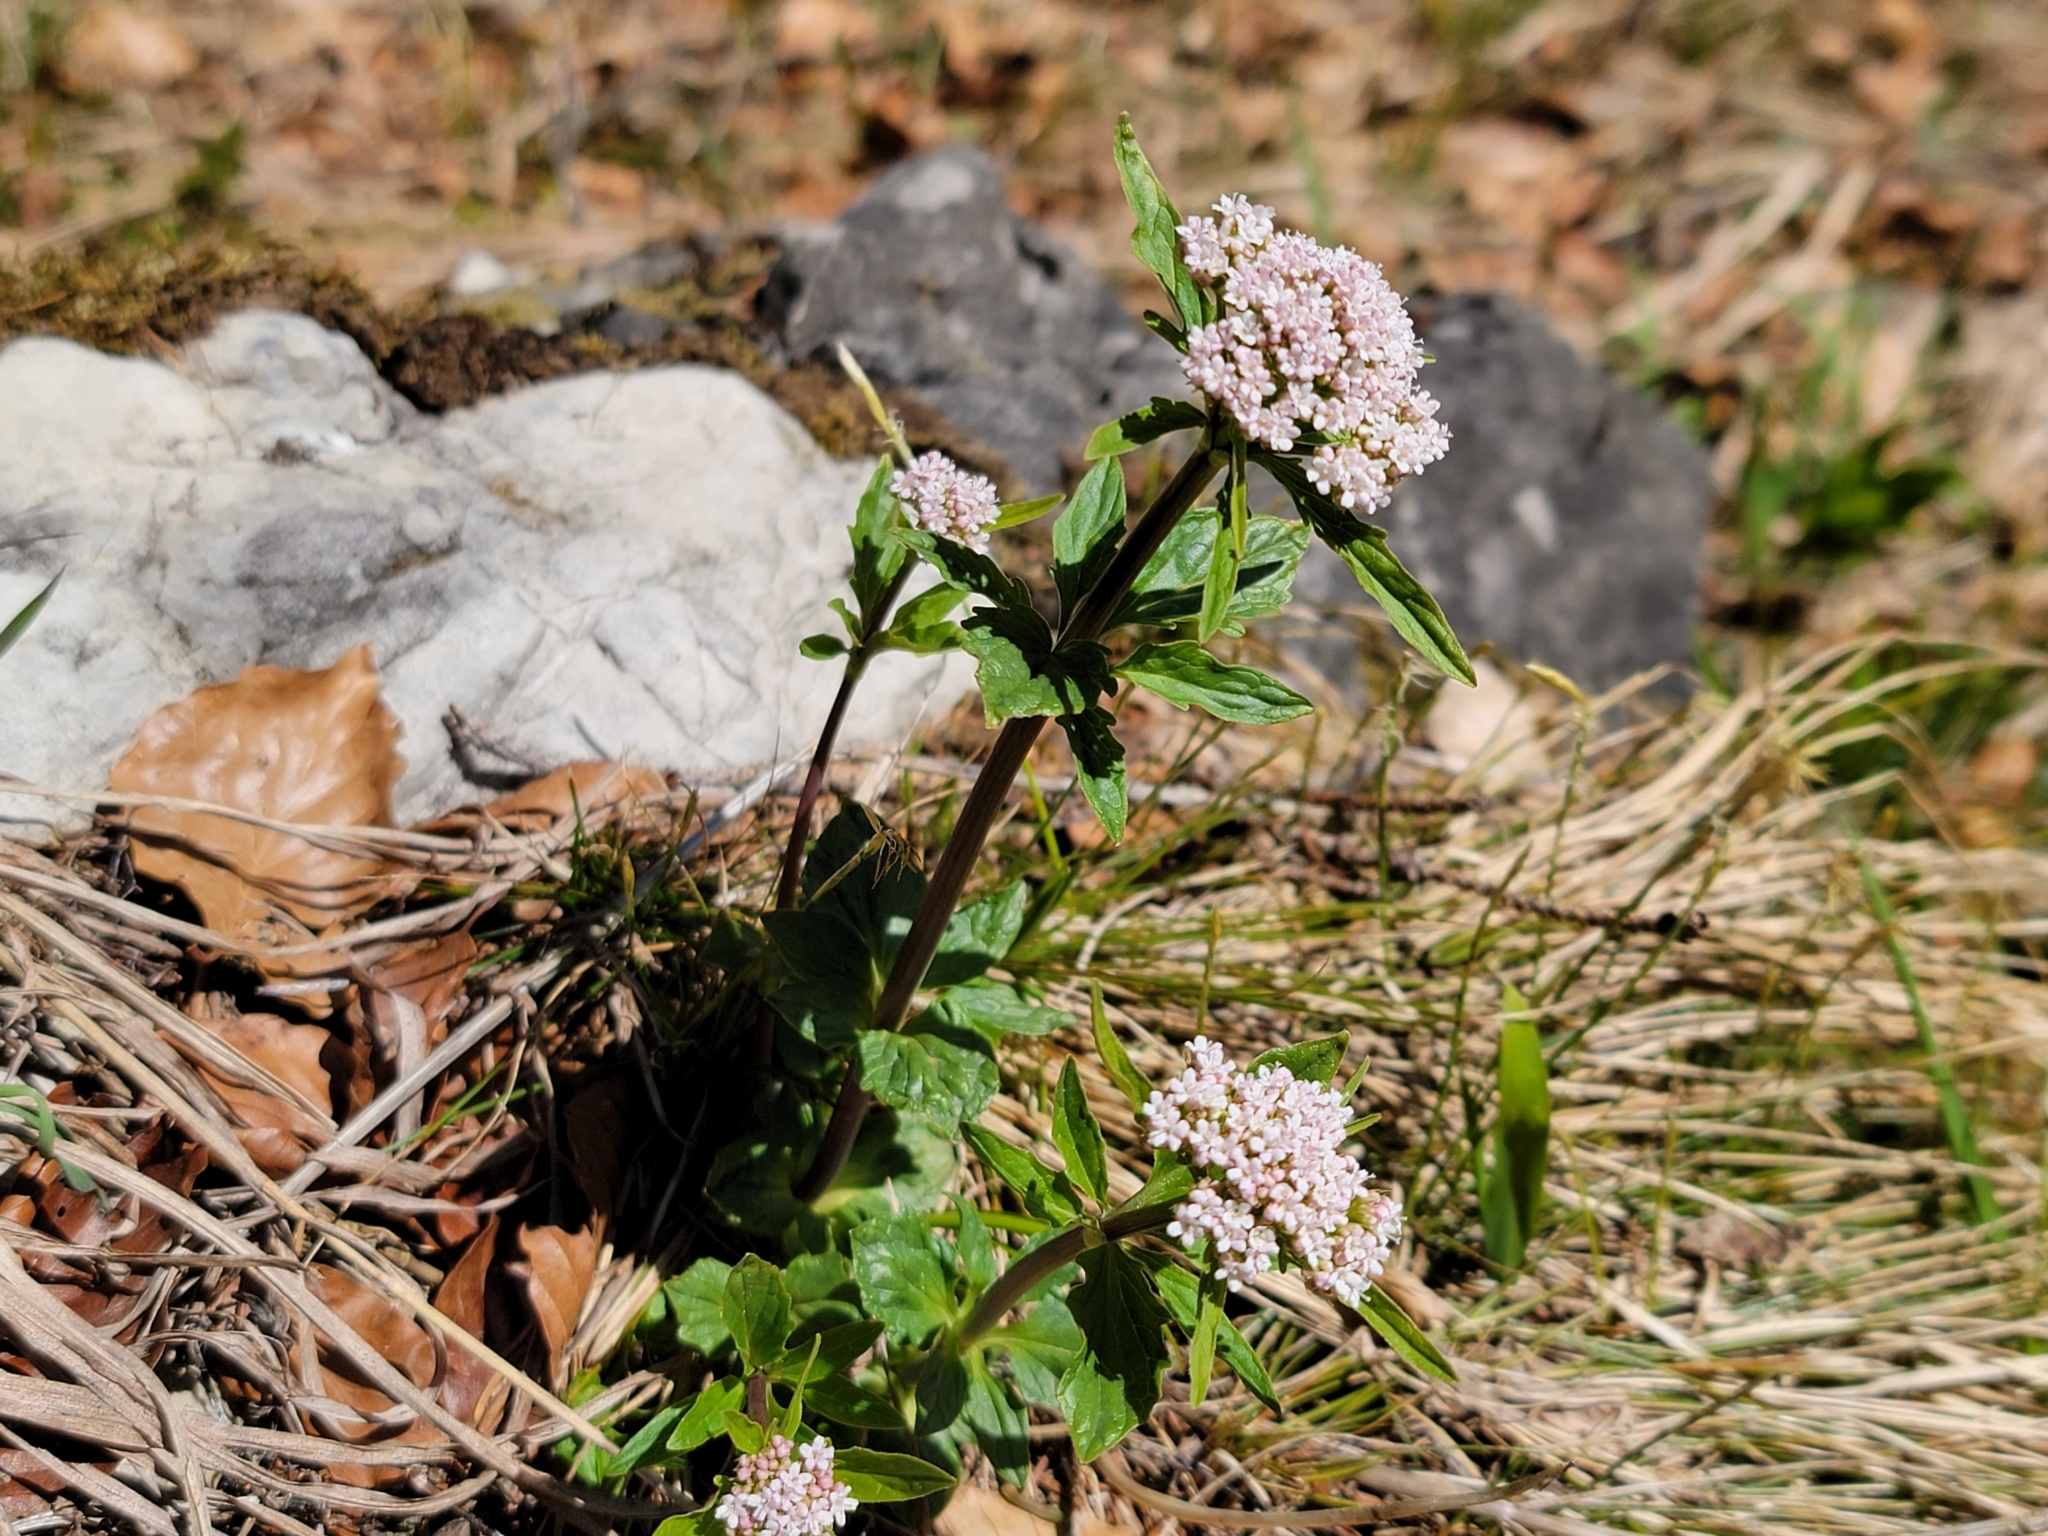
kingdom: Plantae
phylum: Tracheophyta
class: Magnoliopsida
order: Dipsacales
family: Caprifoliaceae
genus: Valeriana
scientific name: Valeriana tripteris
